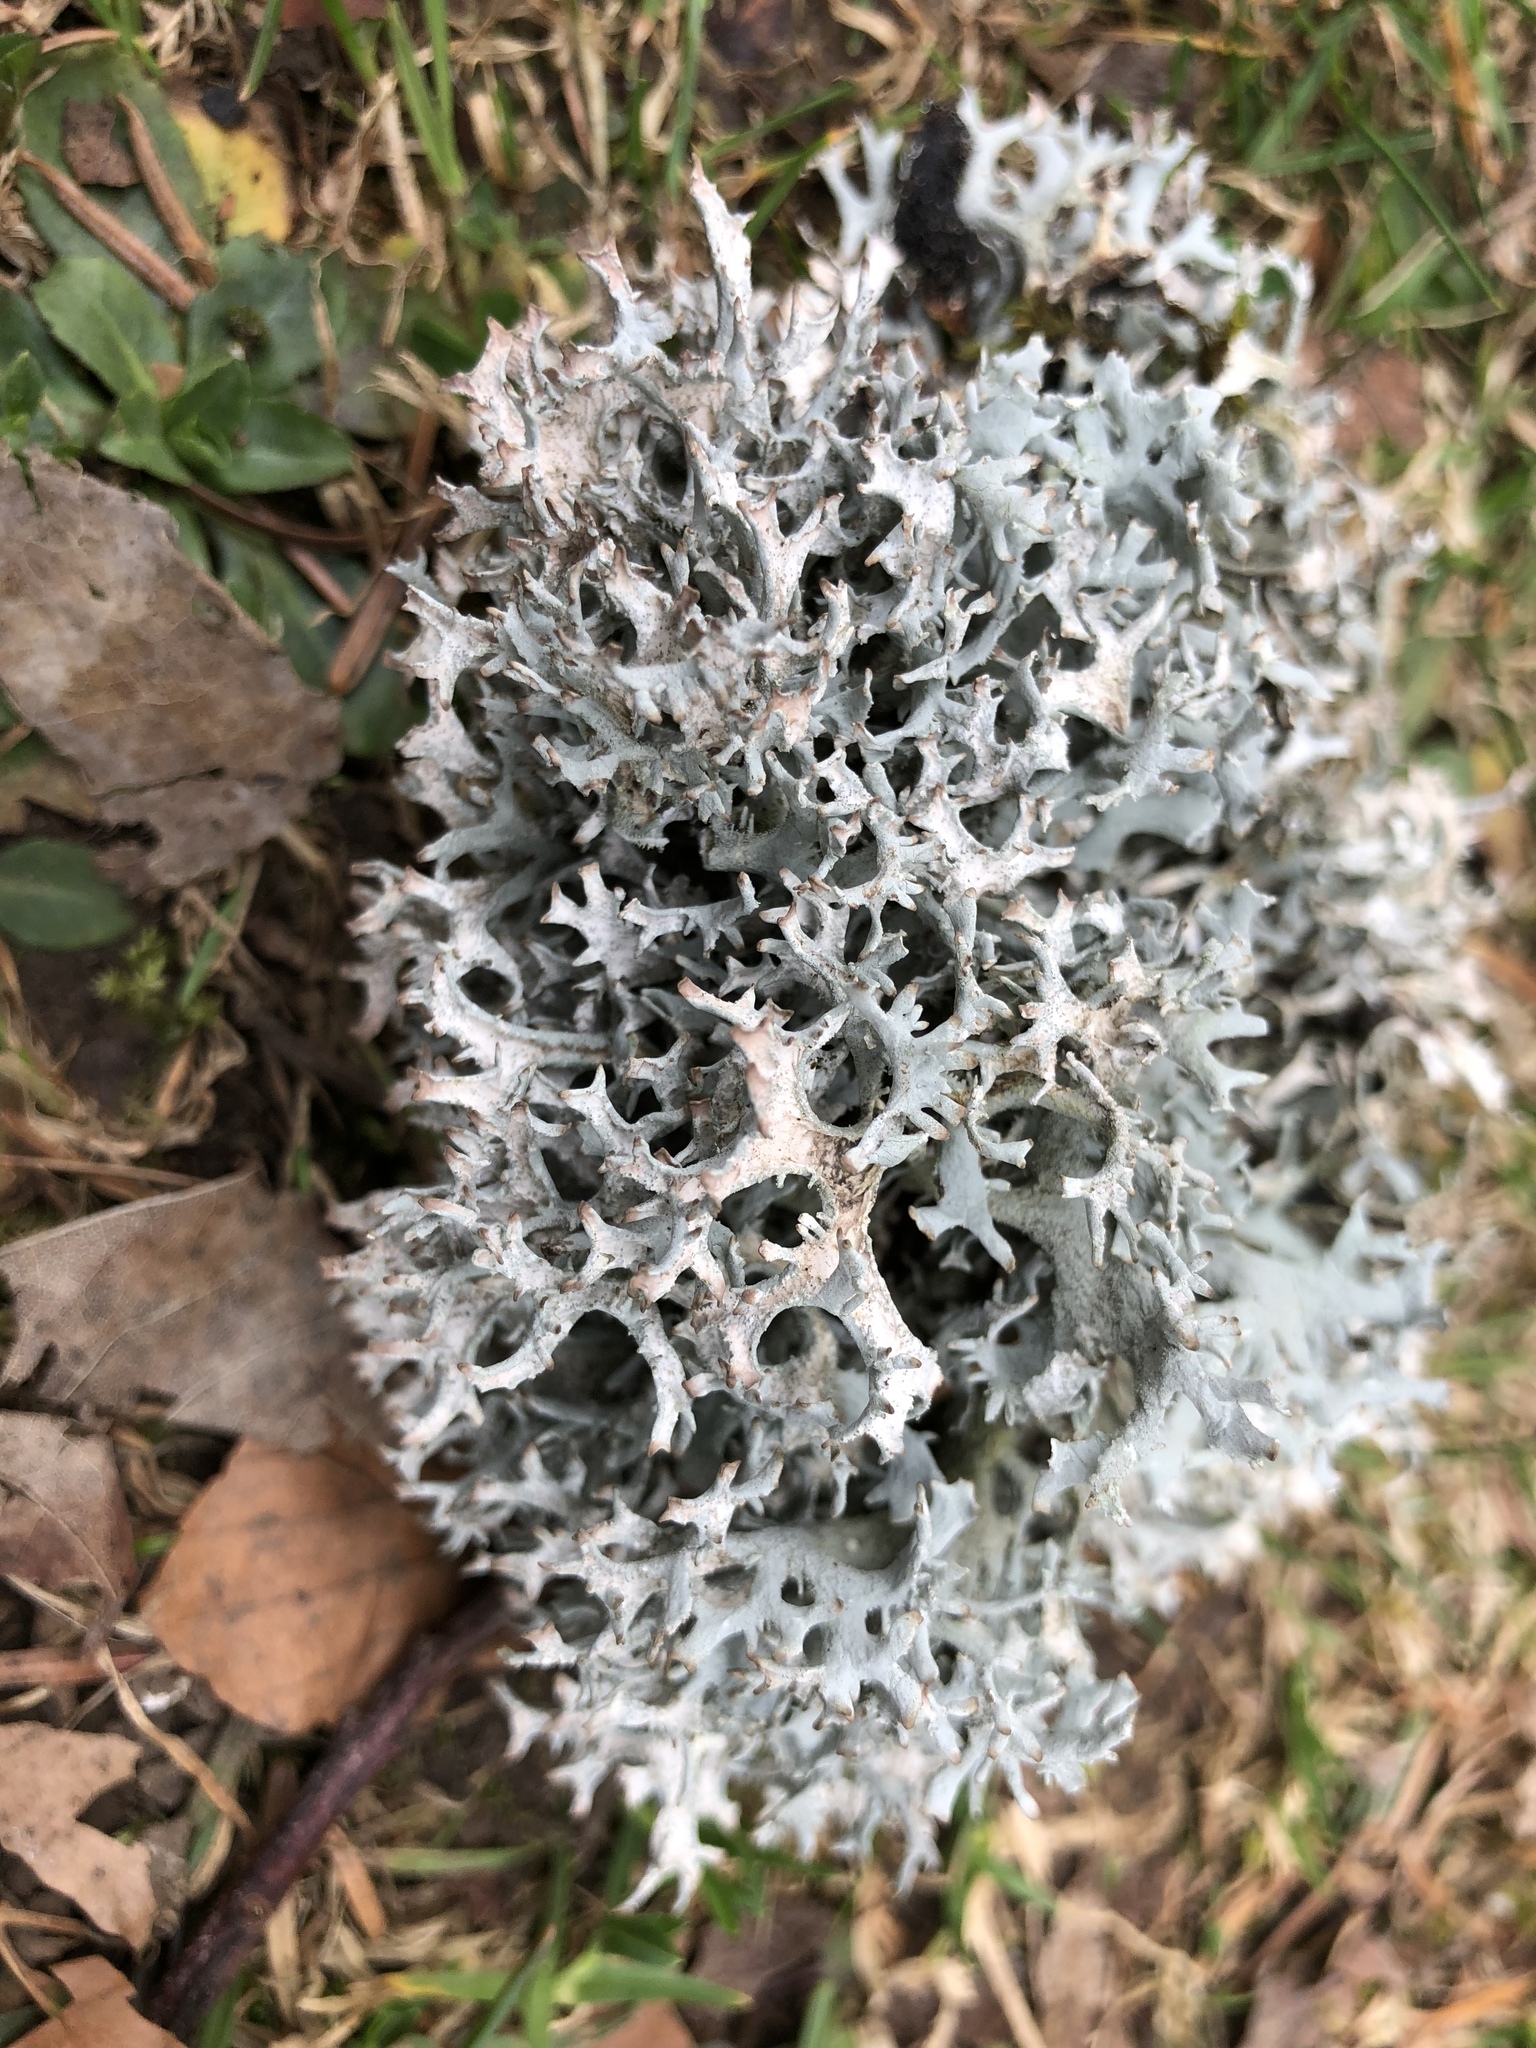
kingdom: Fungi
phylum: Ascomycota
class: Lecanoromycetes
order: Lecanorales
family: Parmeliaceae
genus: Pseudevernia
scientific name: Pseudevernia furfuracea
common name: Tree moss
